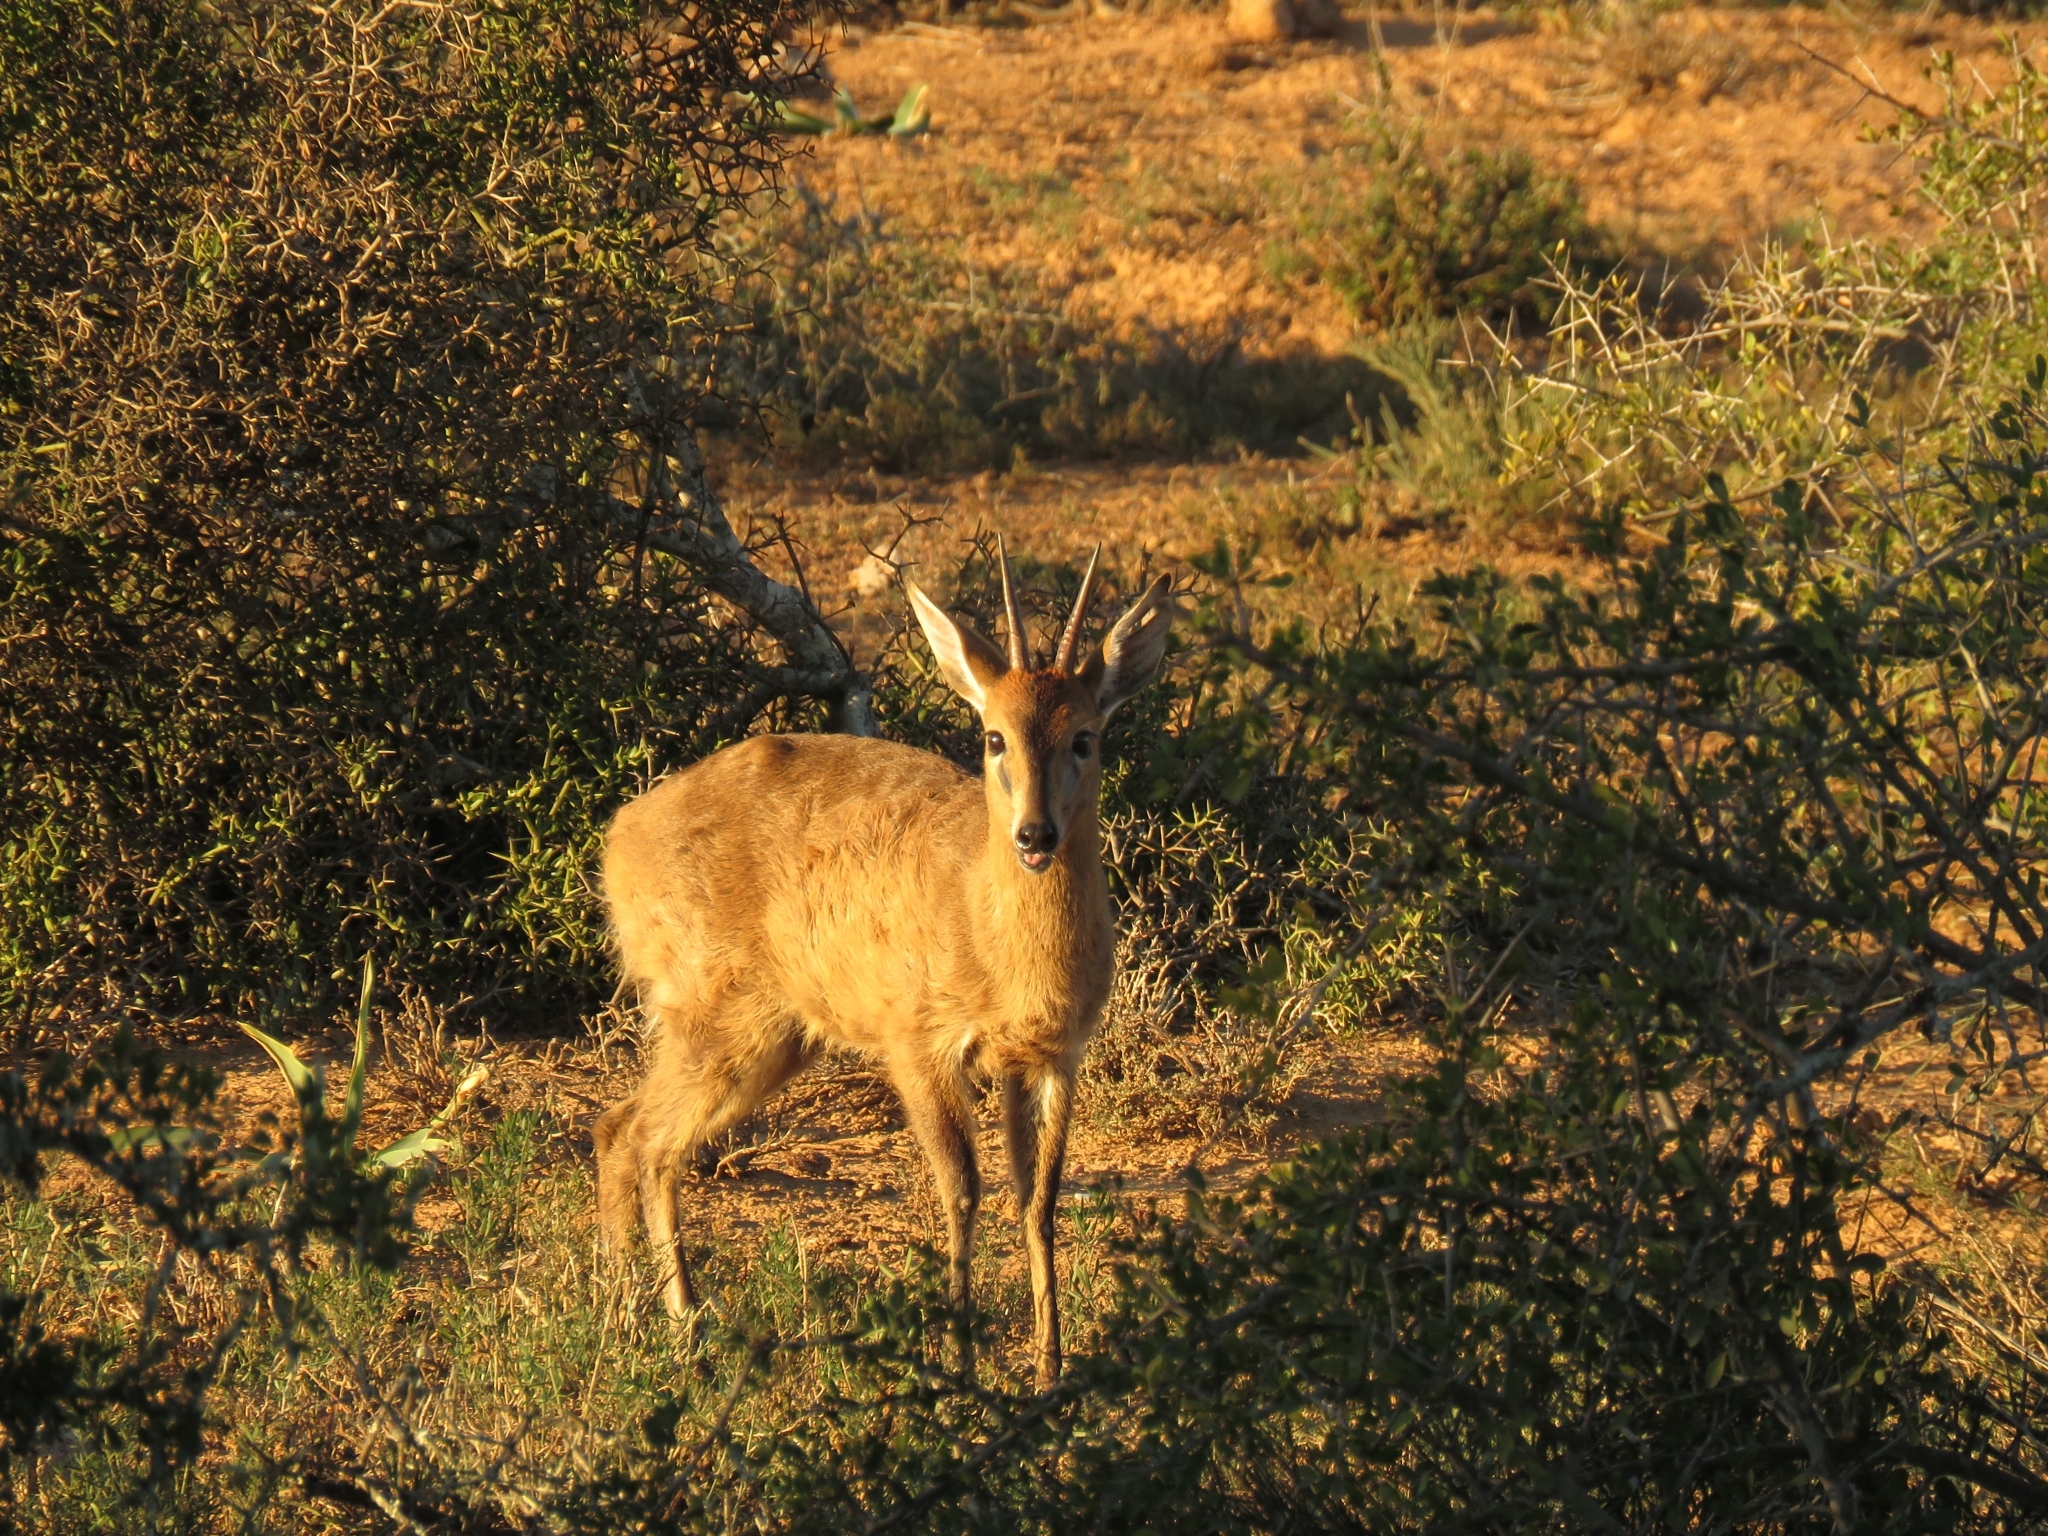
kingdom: Animalia
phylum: Chordata
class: Mammalia
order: Artiodactyla
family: Bovidae
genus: Sylvicapra
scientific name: Sylvicapra grimmia
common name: Bush duiker
